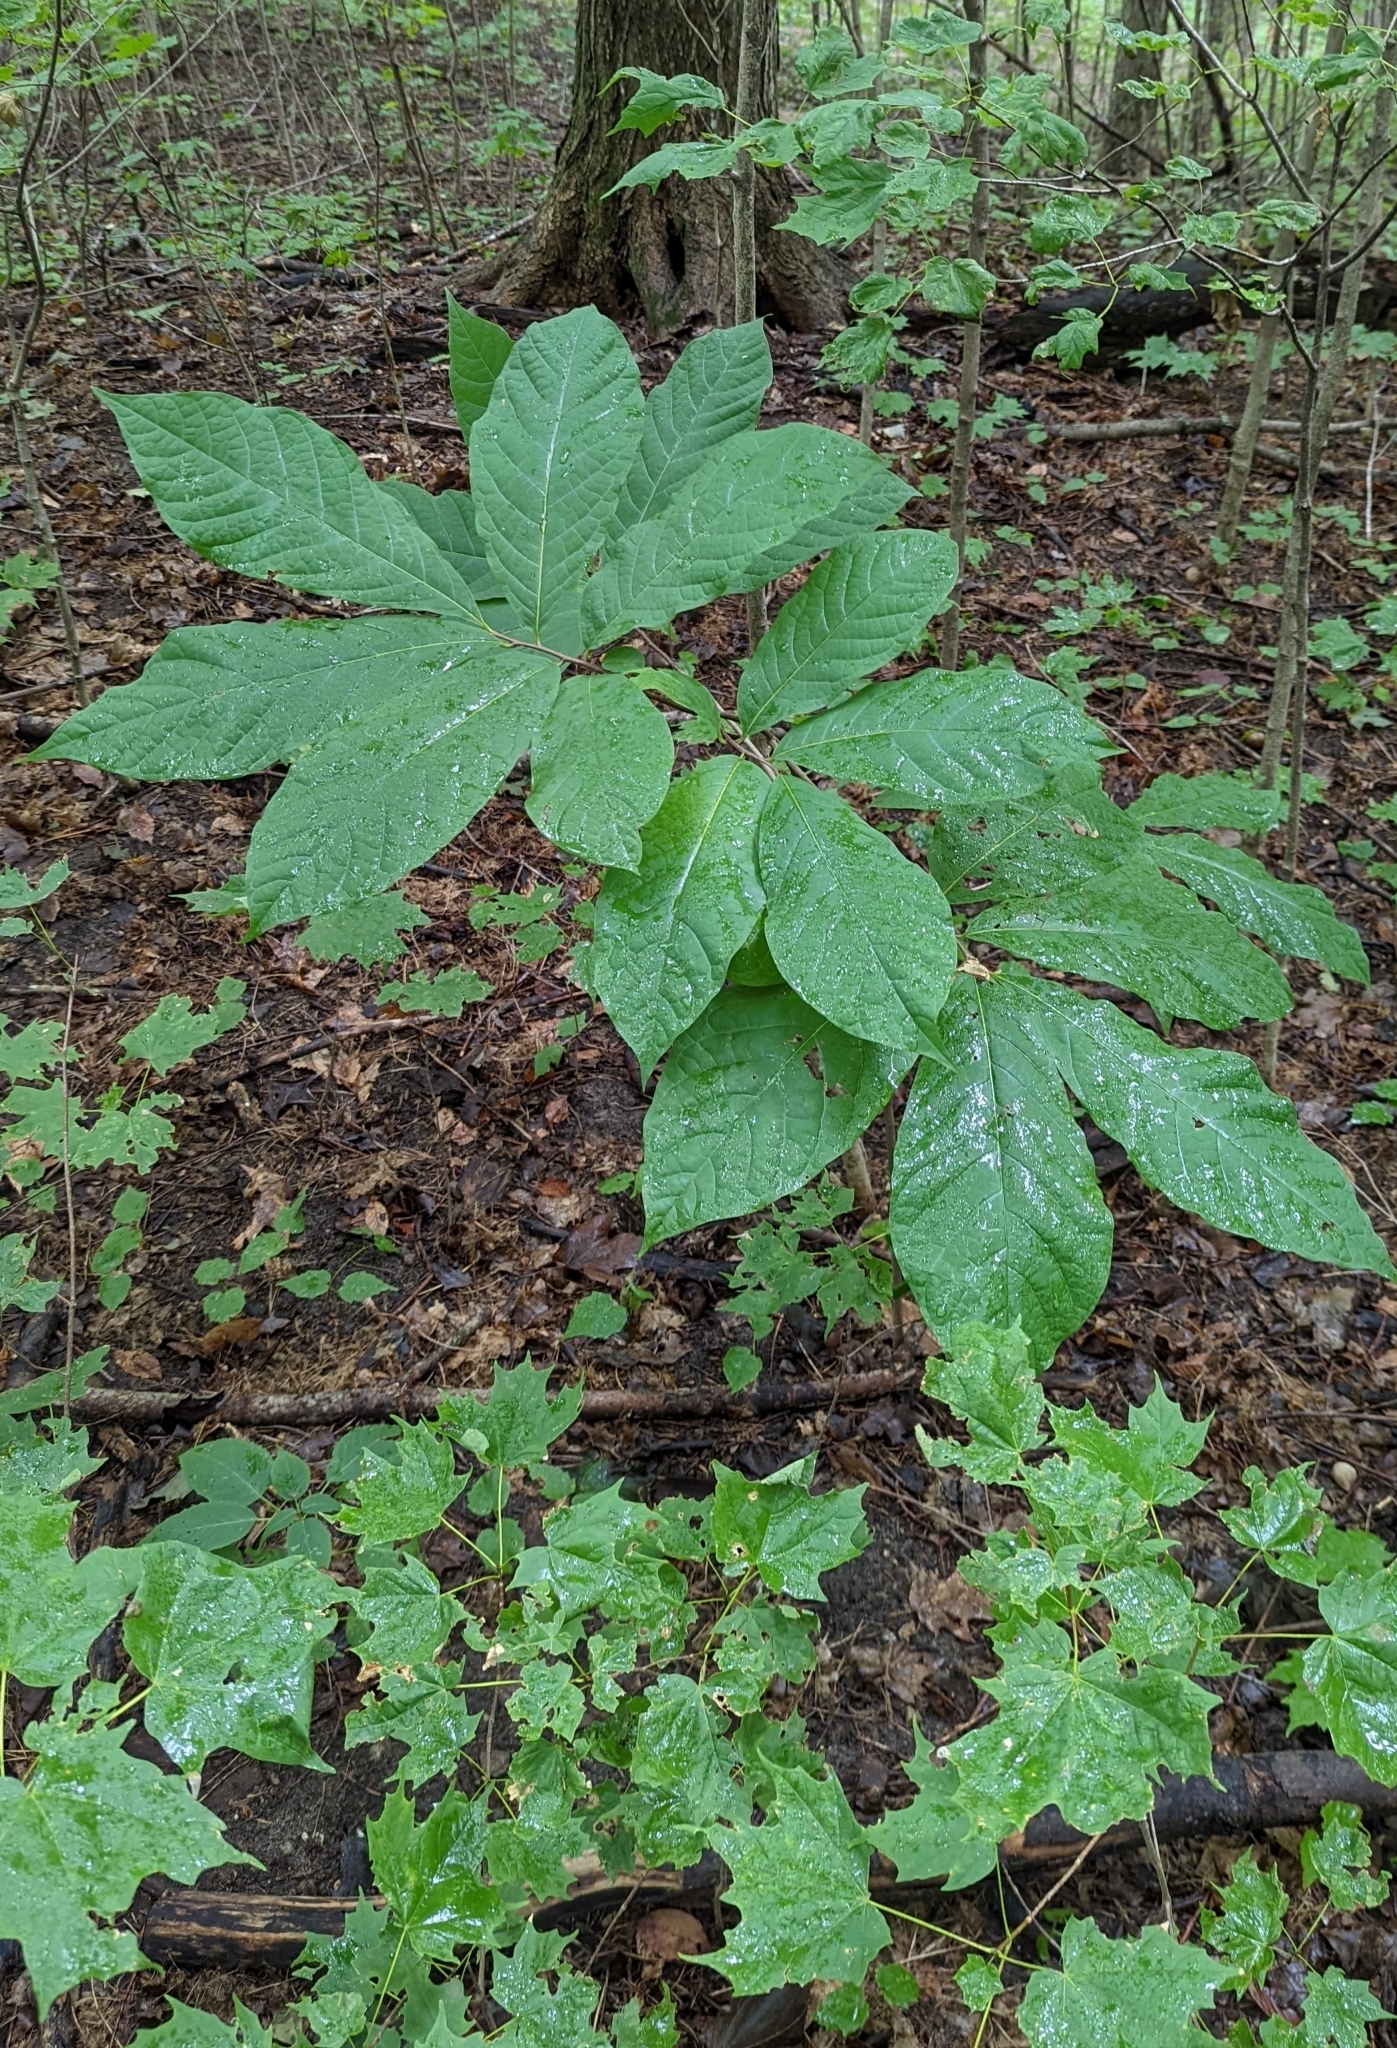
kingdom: Plantae
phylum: Tracheophyta
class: Magnoliopsida
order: Magnoliales
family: Annonaceae
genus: Asimina
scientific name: Asimina triloba
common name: Dog-banana
